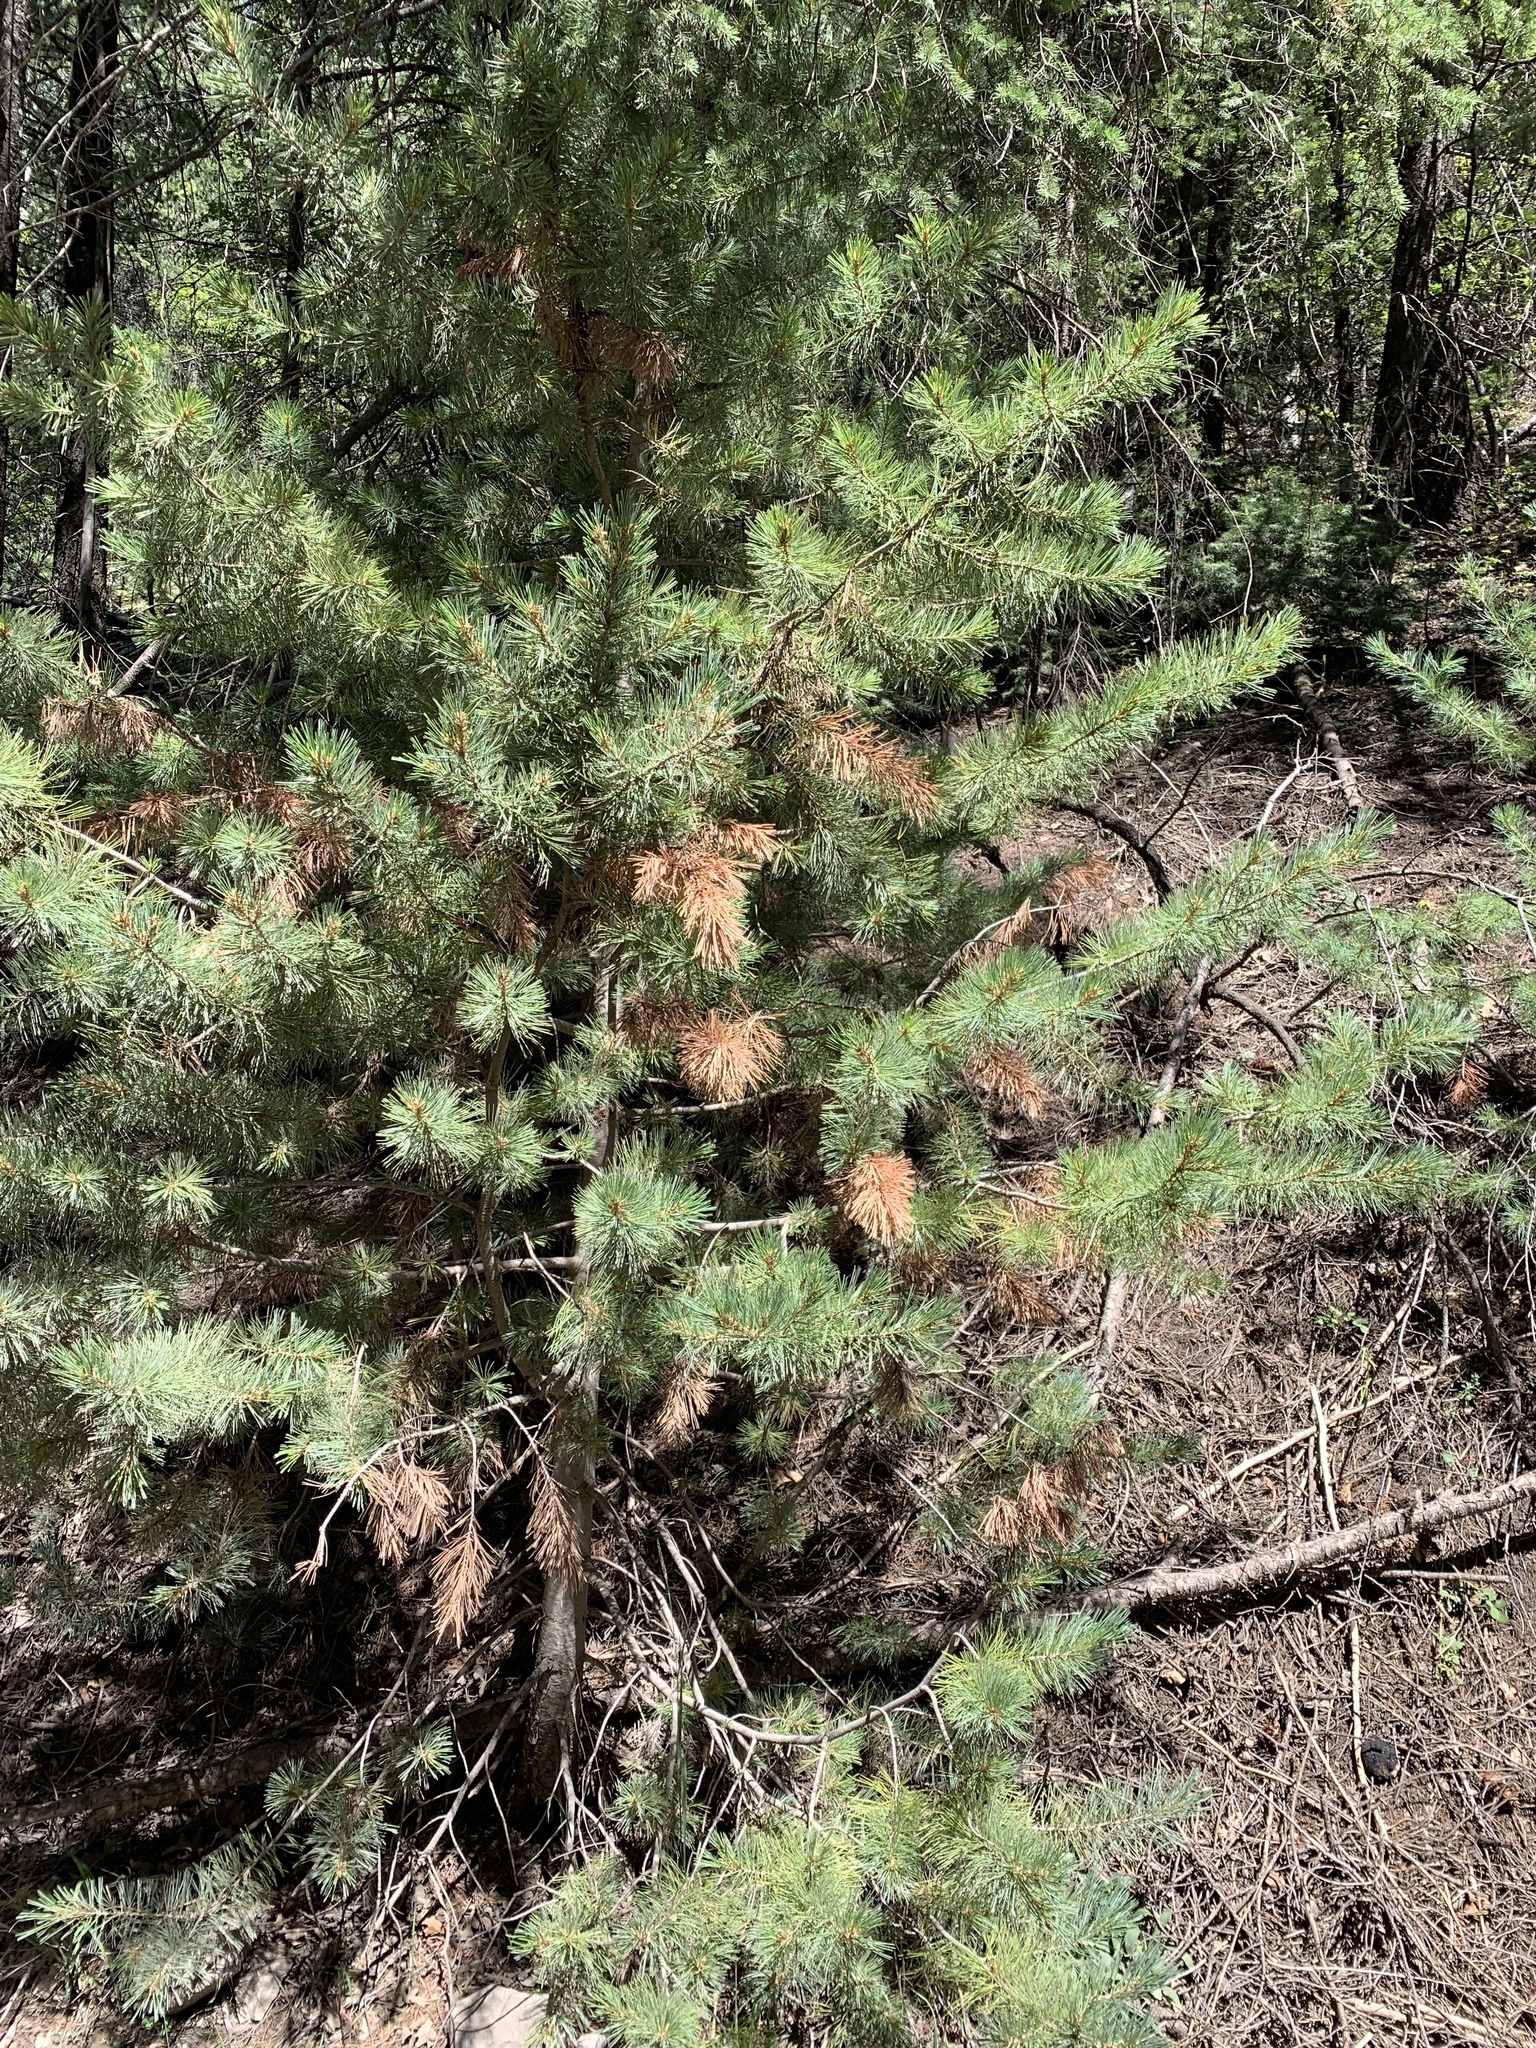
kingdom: Plantae
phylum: Tracheophyta
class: Pinopsida
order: Pinales
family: Pinaceae
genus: Pinus
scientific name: Pinus strobiformis
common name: Southwestern white pine
